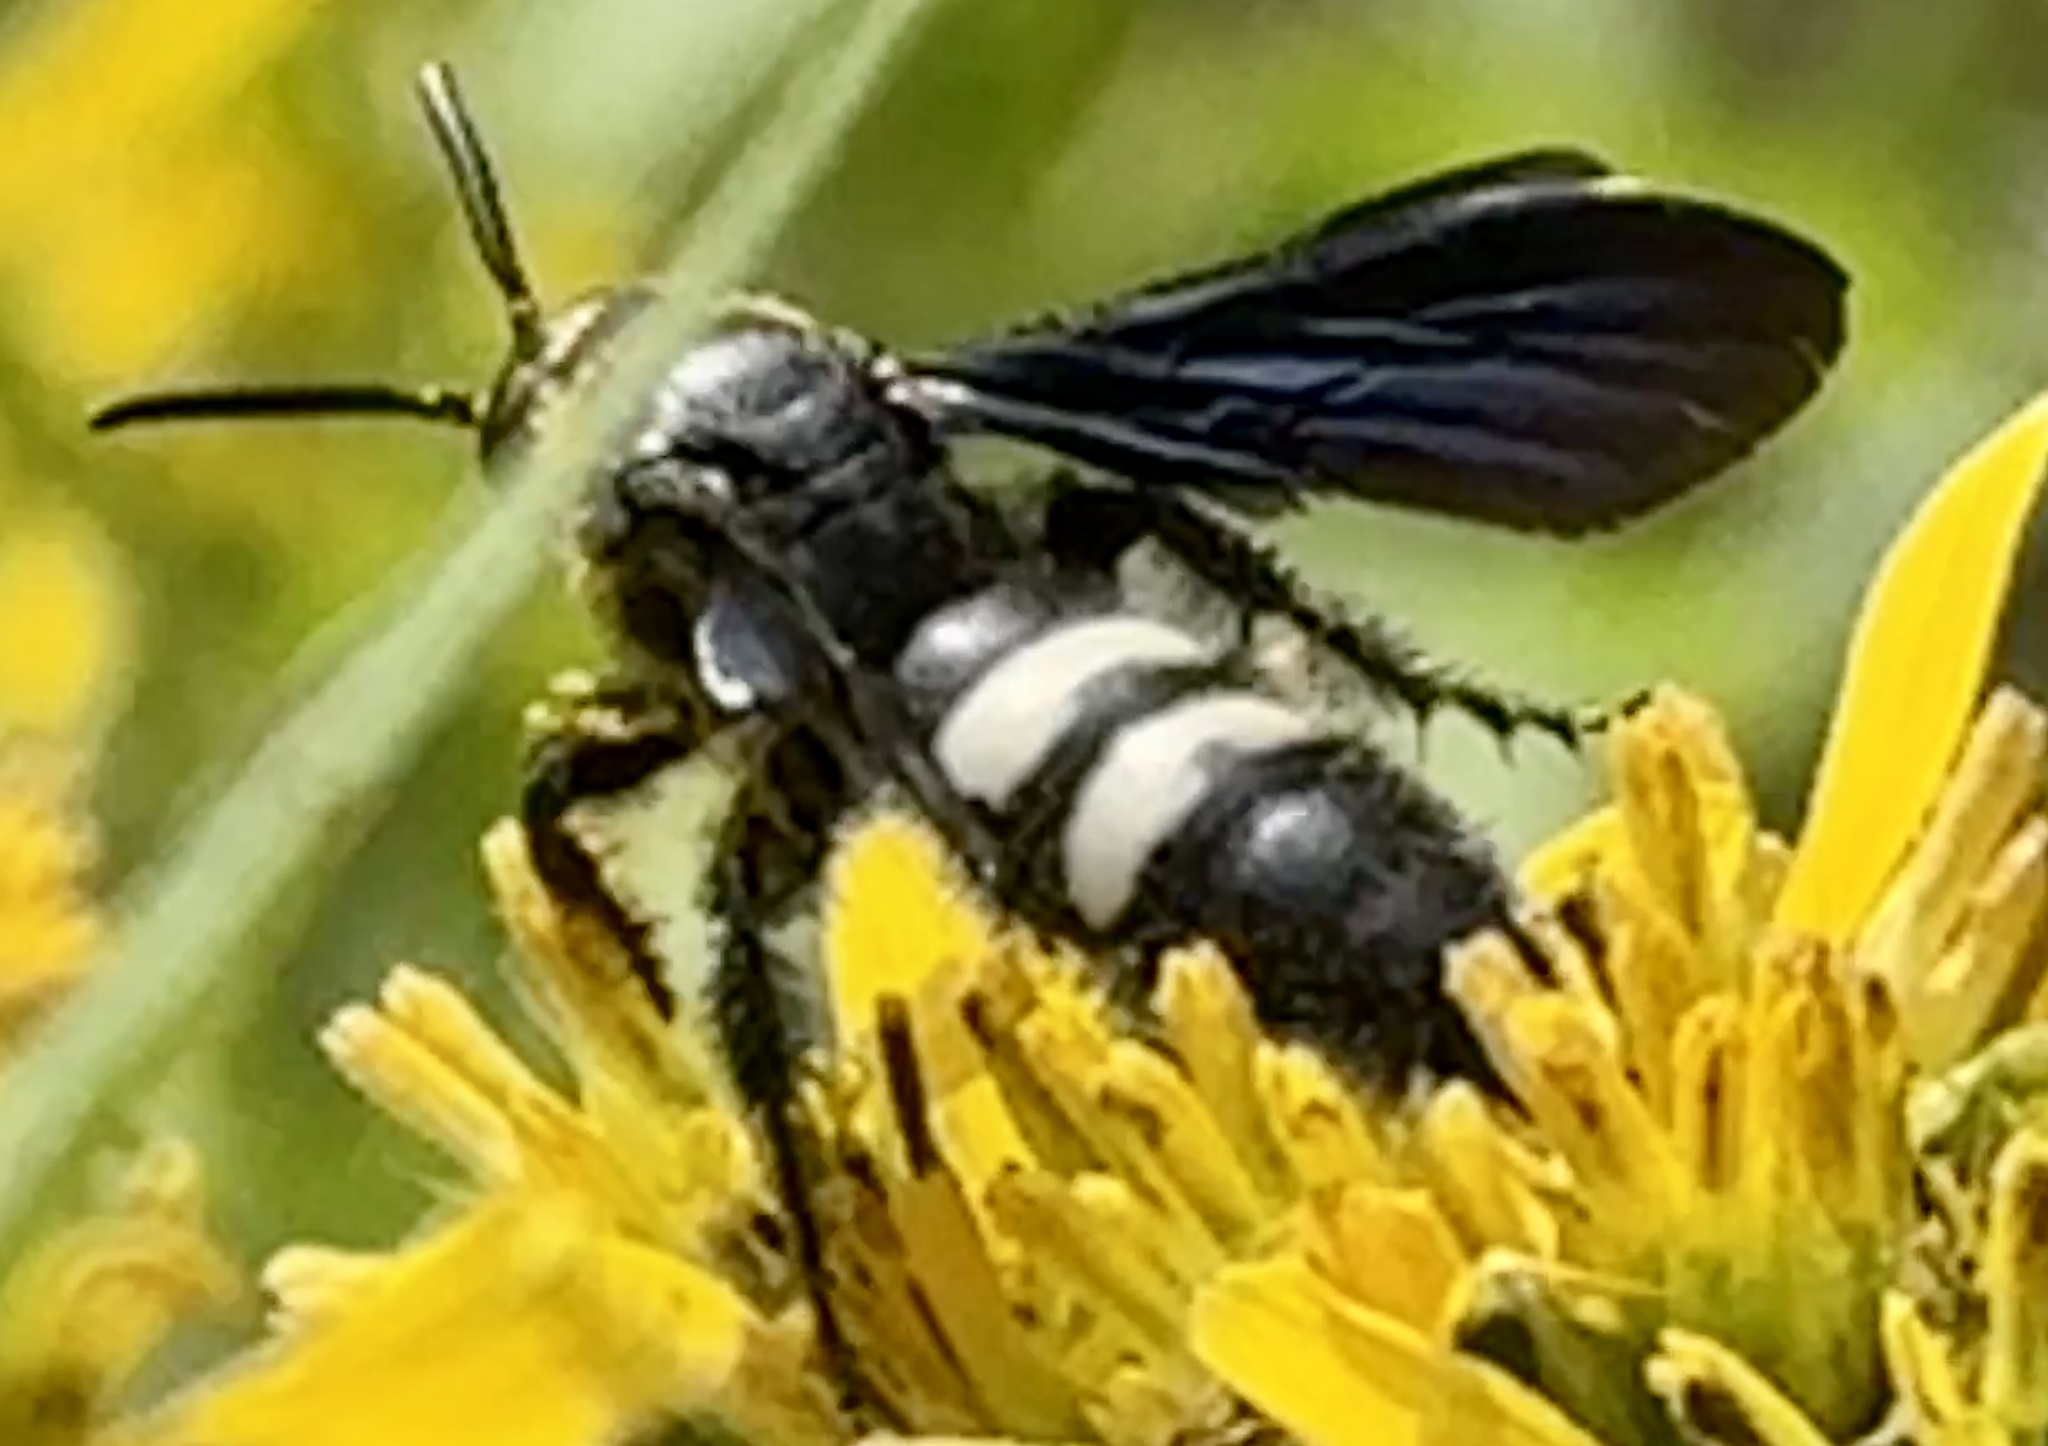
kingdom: Animalia
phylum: Arthropoda
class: Insecta
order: Hymenoptera
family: Scoliidae
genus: Scolia
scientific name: Scolia bicincta
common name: Double-banded scoliid wasp
